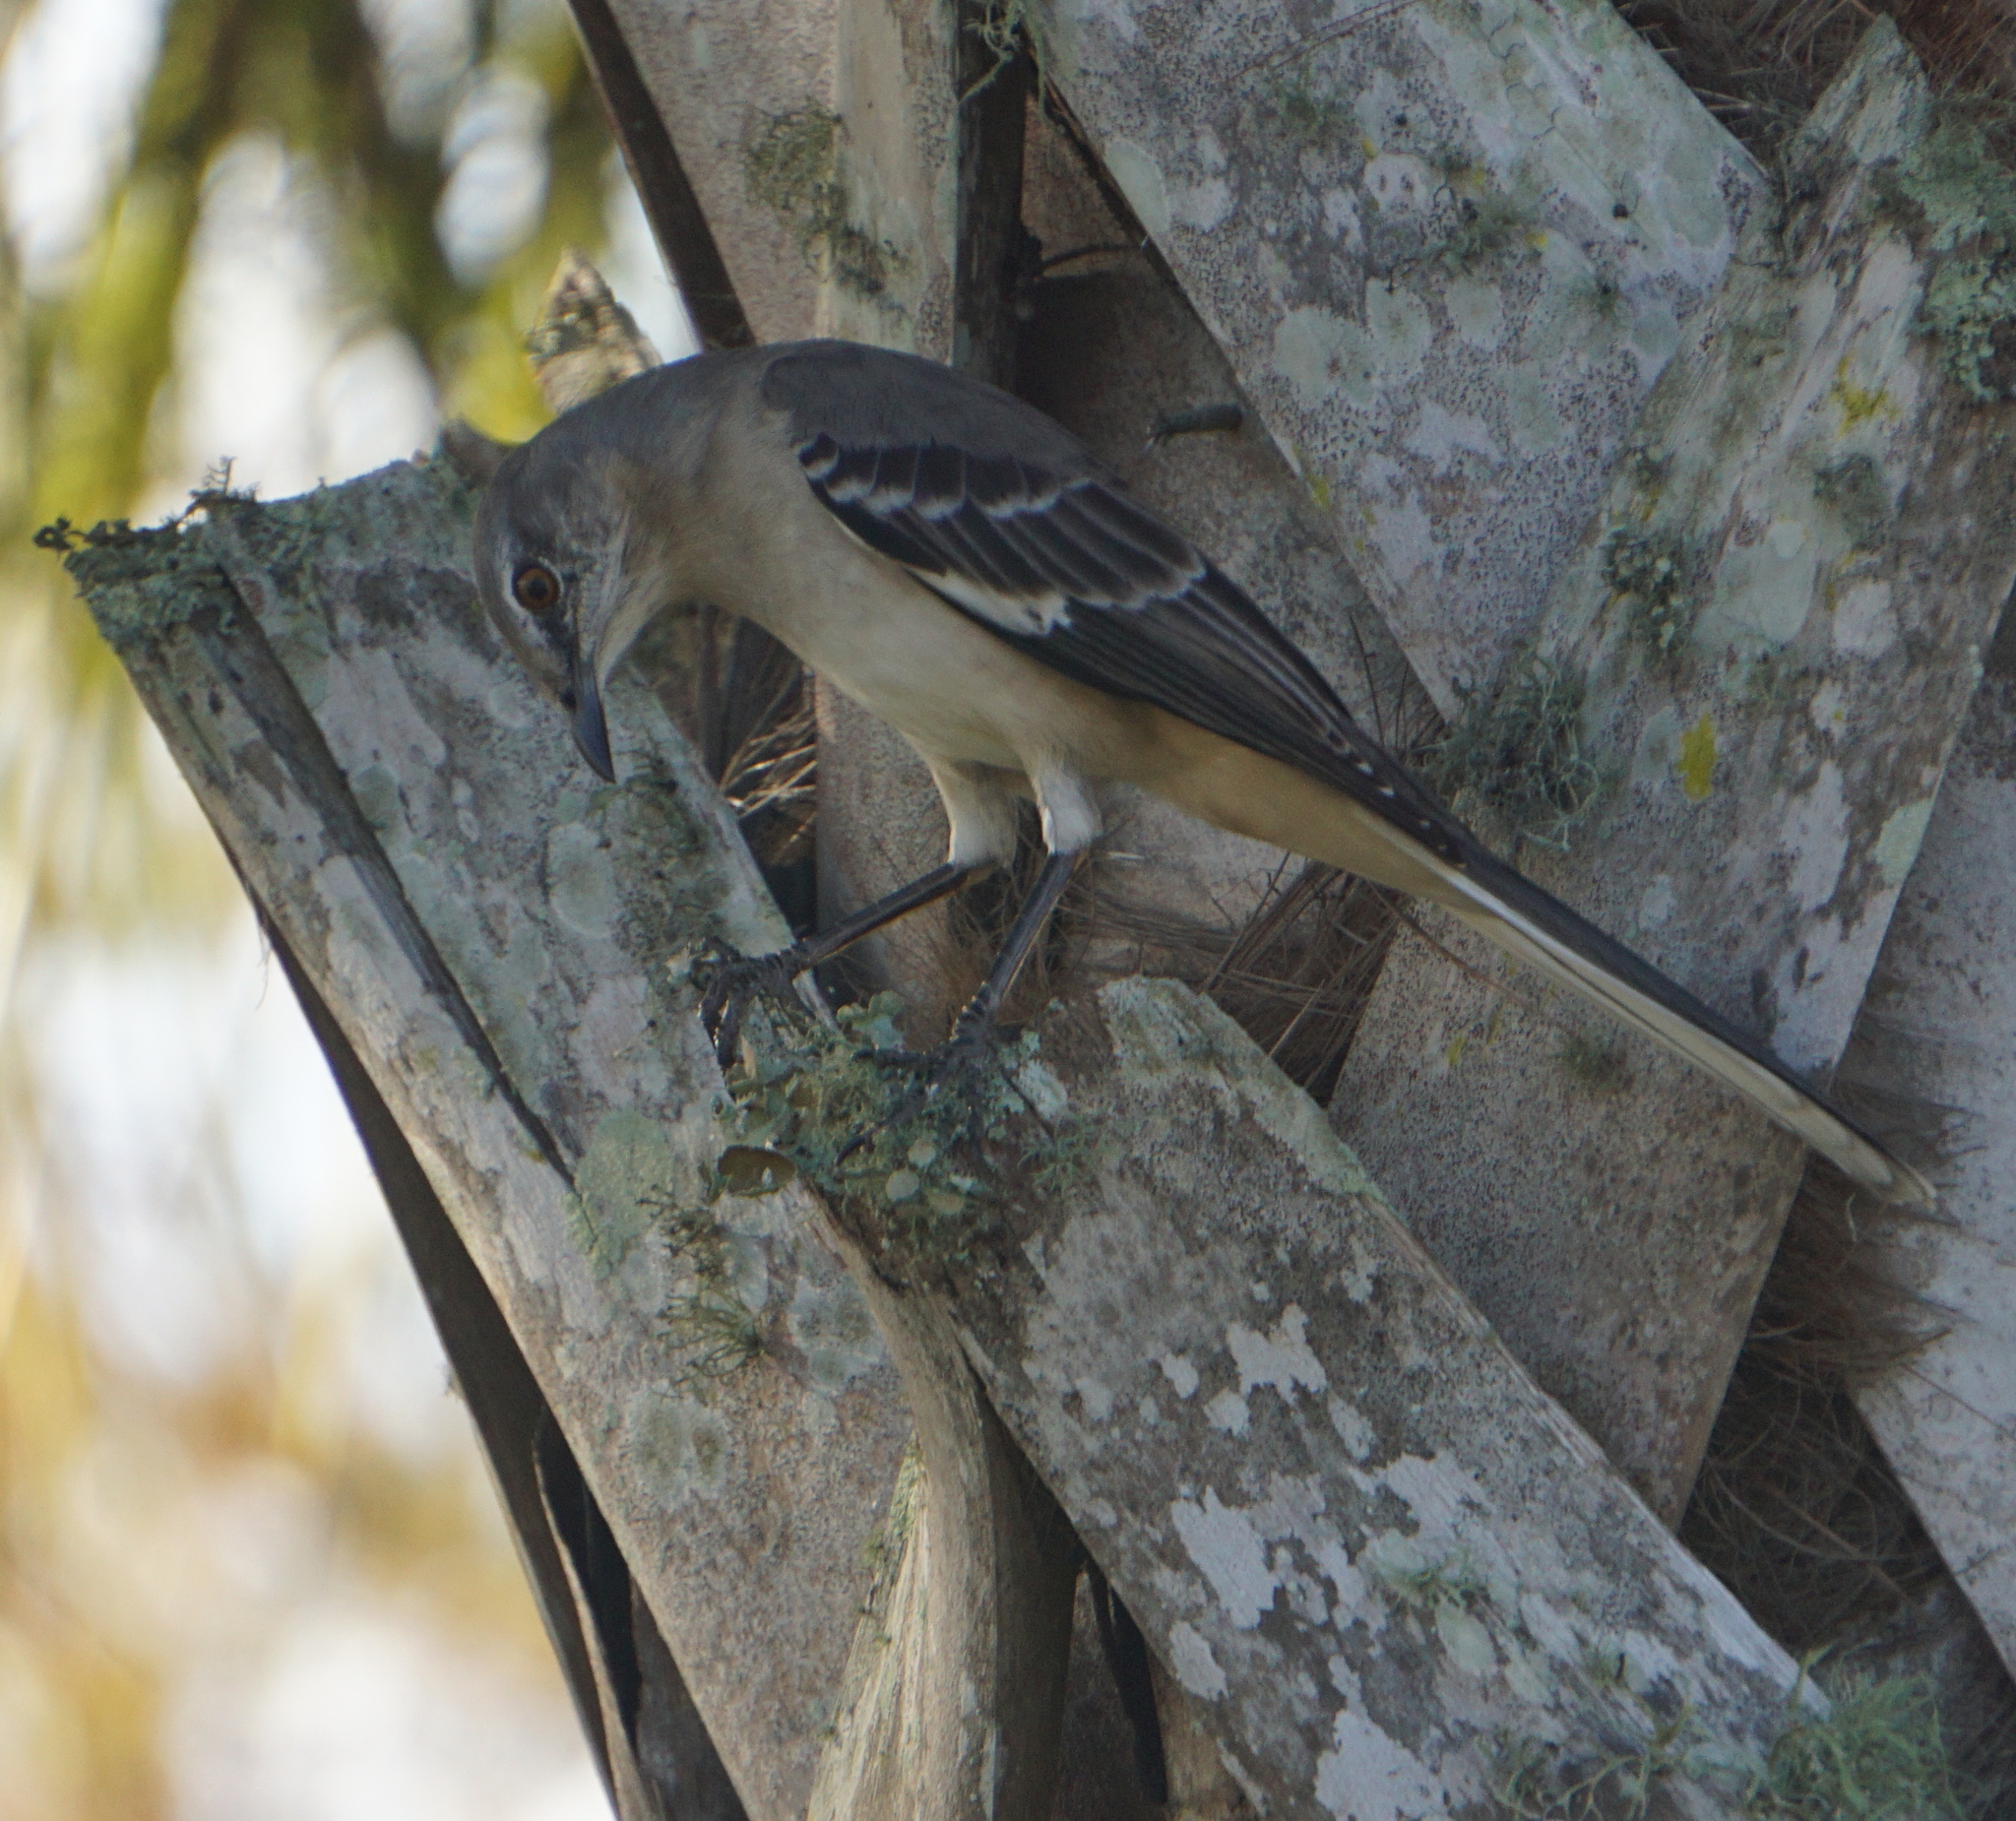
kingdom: Animalia
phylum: Chordata
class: Aves
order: Passeriformes
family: Mimidae
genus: Mimus
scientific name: Mimus polyglottos
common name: Northern mockingbird
